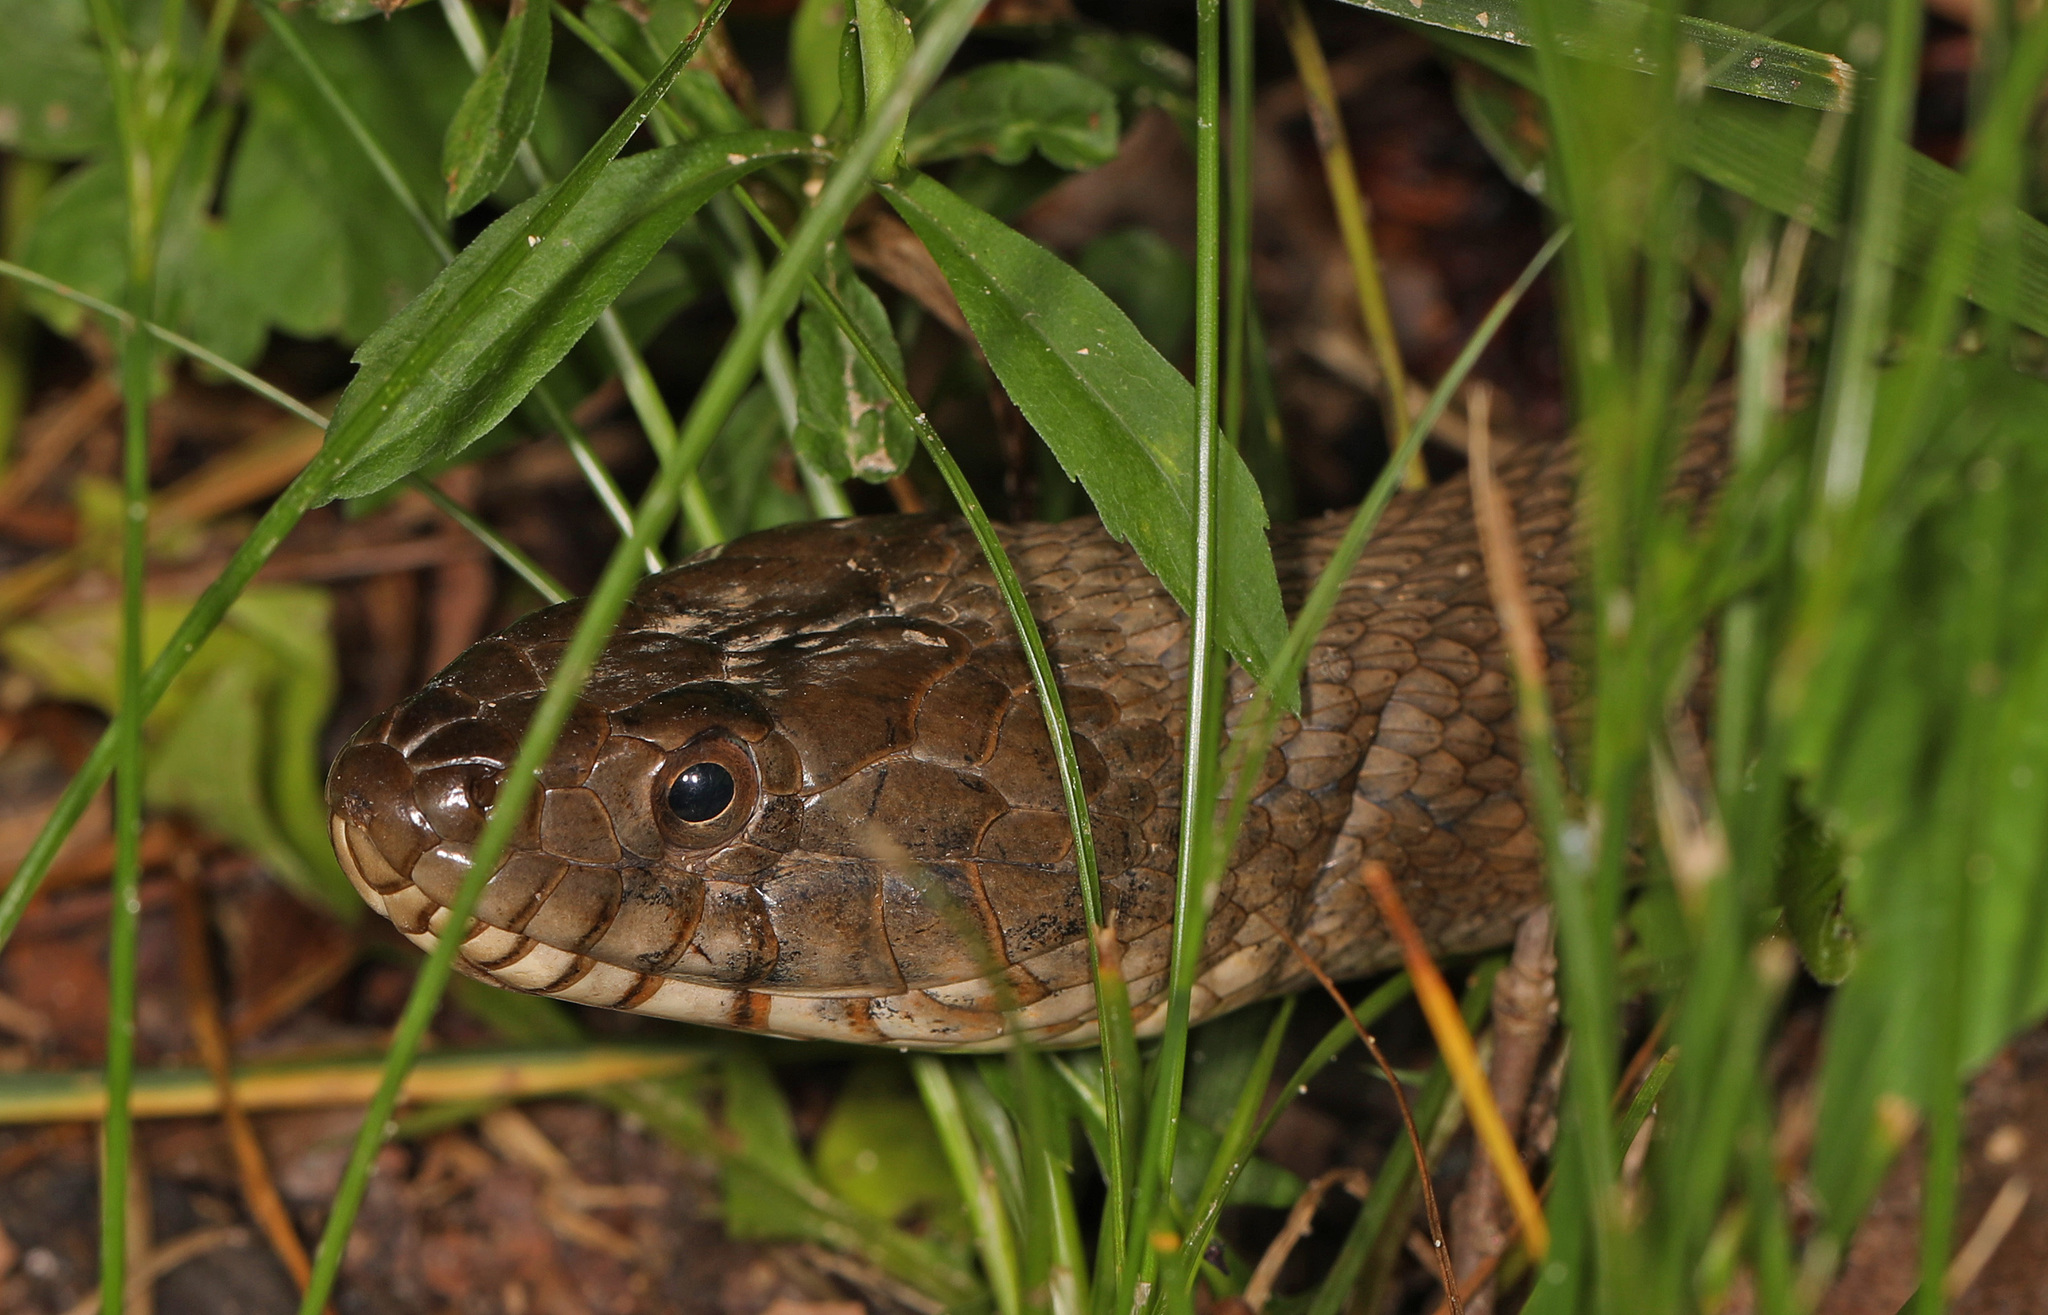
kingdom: Animalia
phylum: Chordata
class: Squamata
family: Colubridae
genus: Nerodia
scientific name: Nerodia sipedon
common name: Northern water snake
